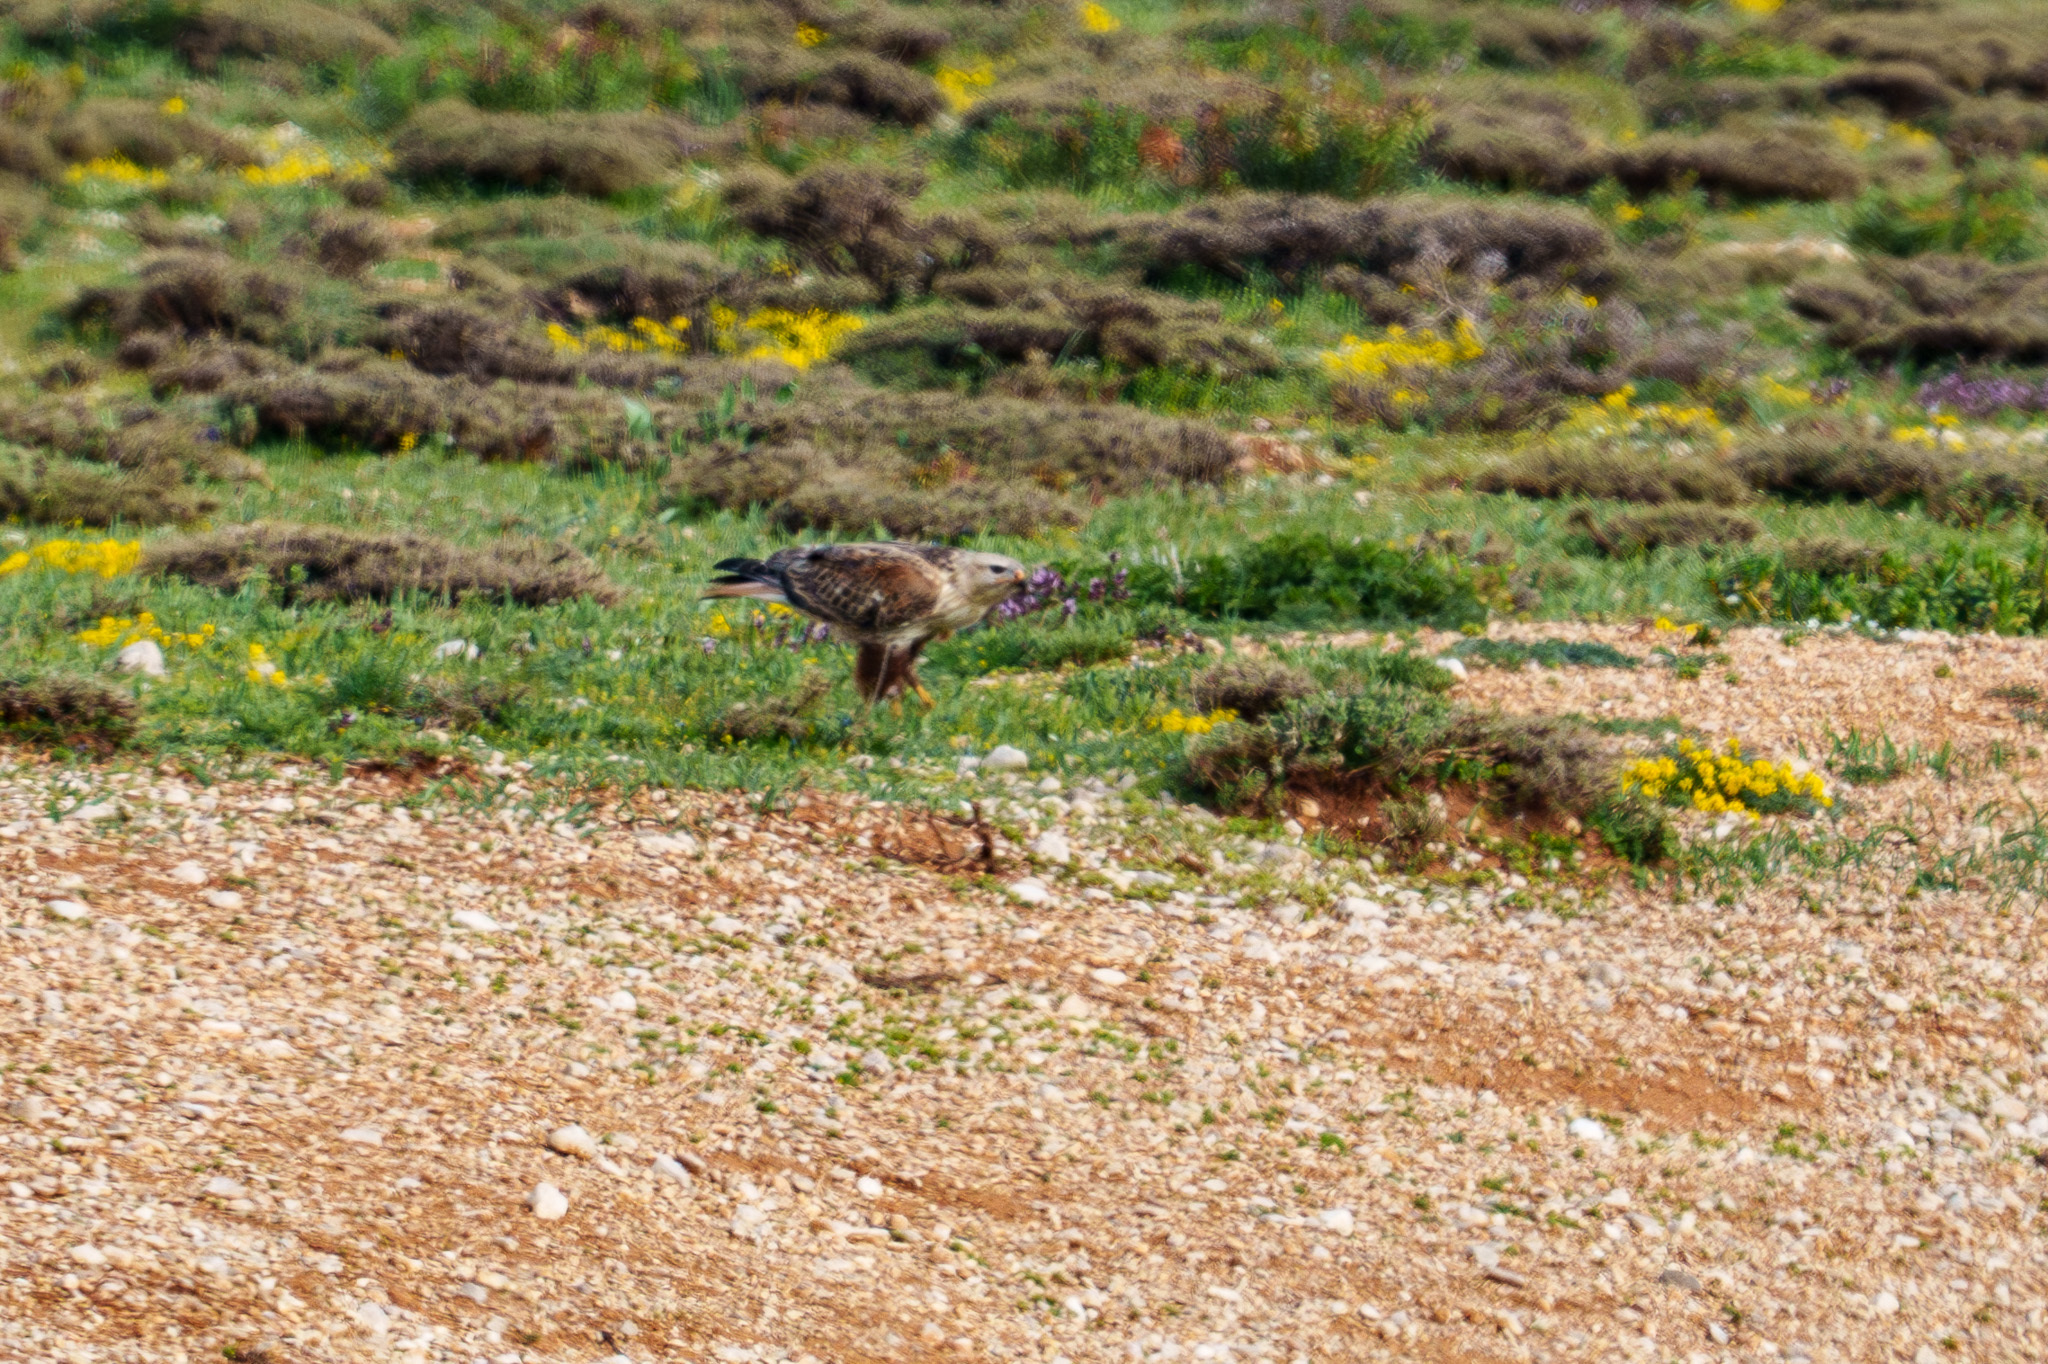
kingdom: Animalia
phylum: Chordata
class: Aves
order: Accipitriformes
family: Accipitridae
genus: Buteo
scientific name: Buteo rufinus
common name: Long-legged buzzard
